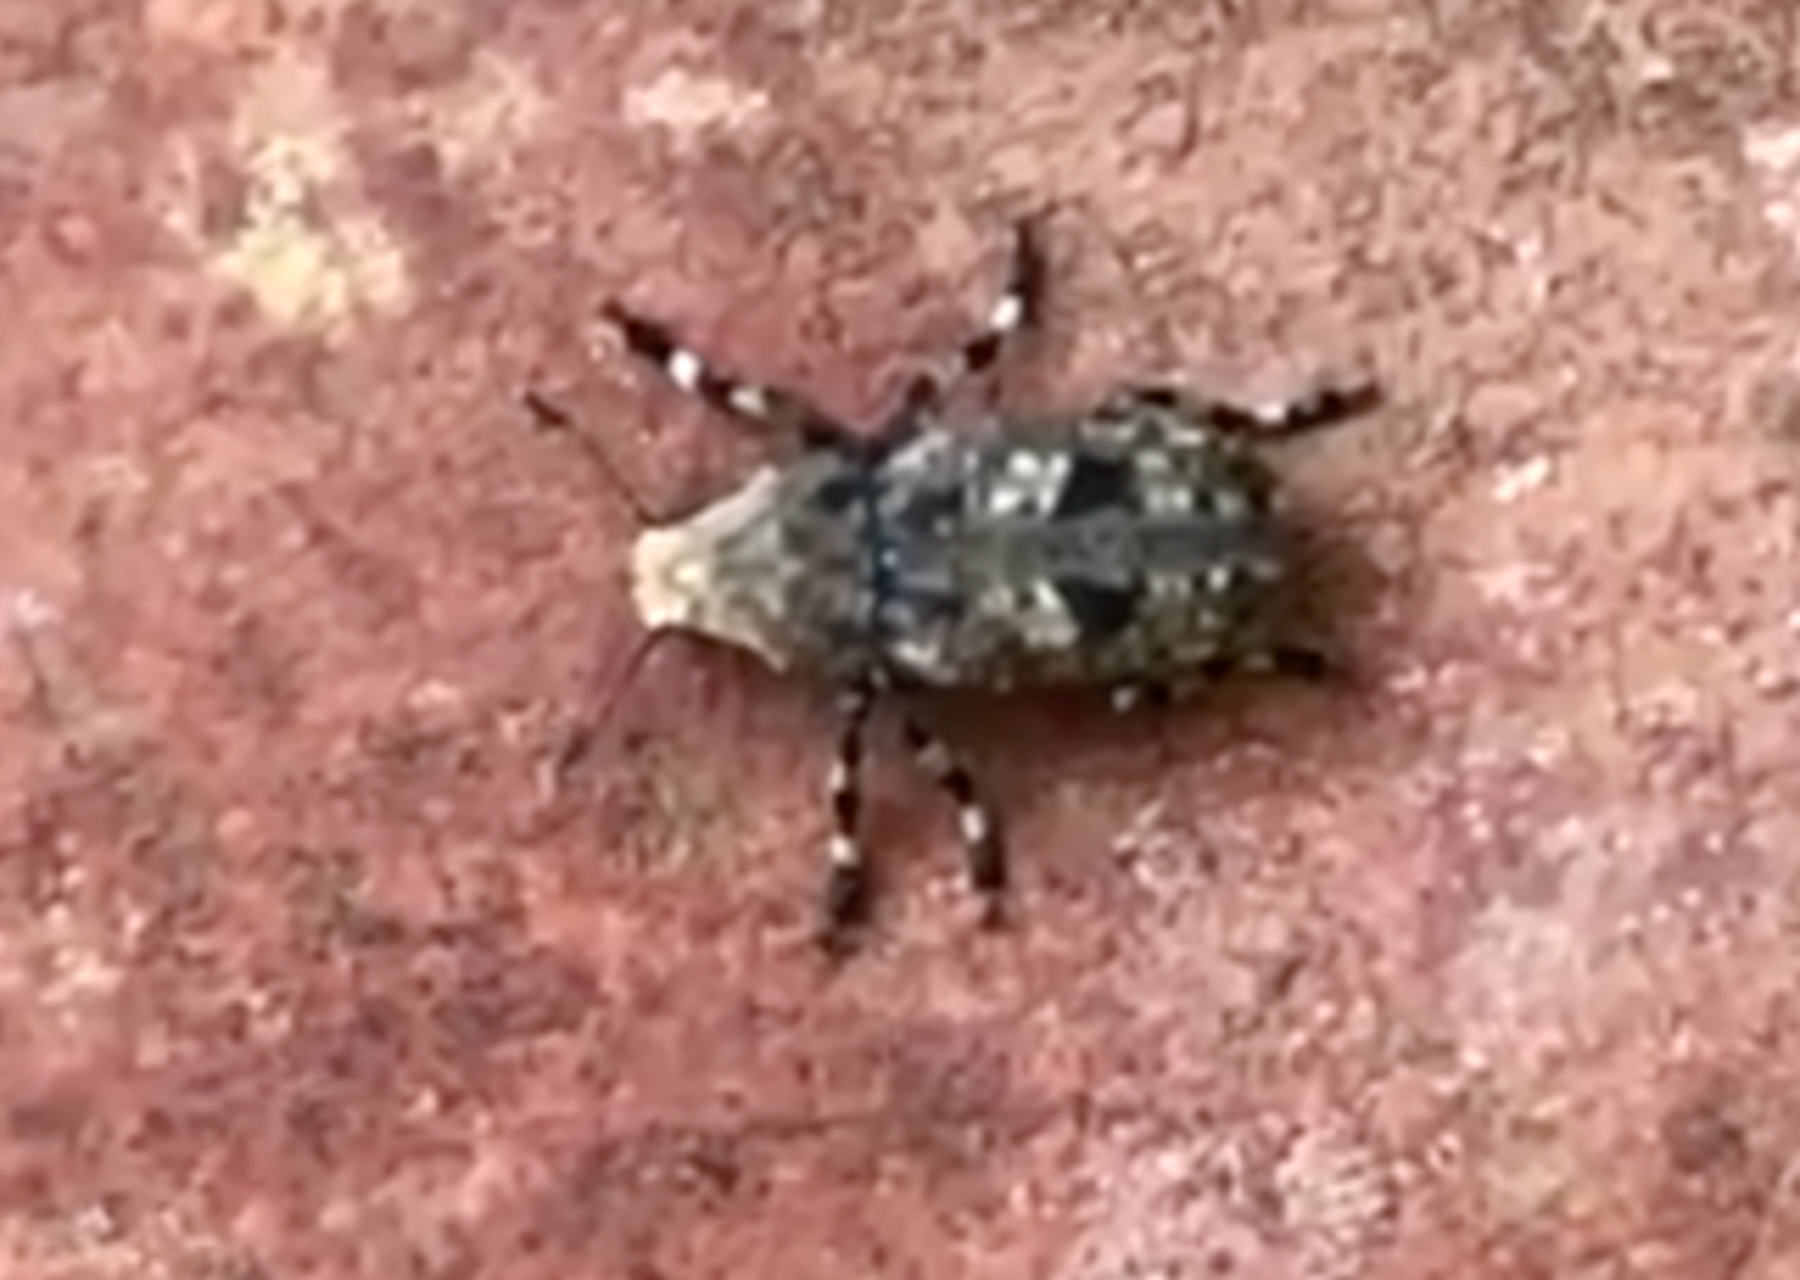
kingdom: Animalia
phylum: Arthropoda
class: Insecta
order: Coleoptera
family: Anthribidae
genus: Euparius
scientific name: Euparius marmoreus
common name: Marbled fungus weevil
